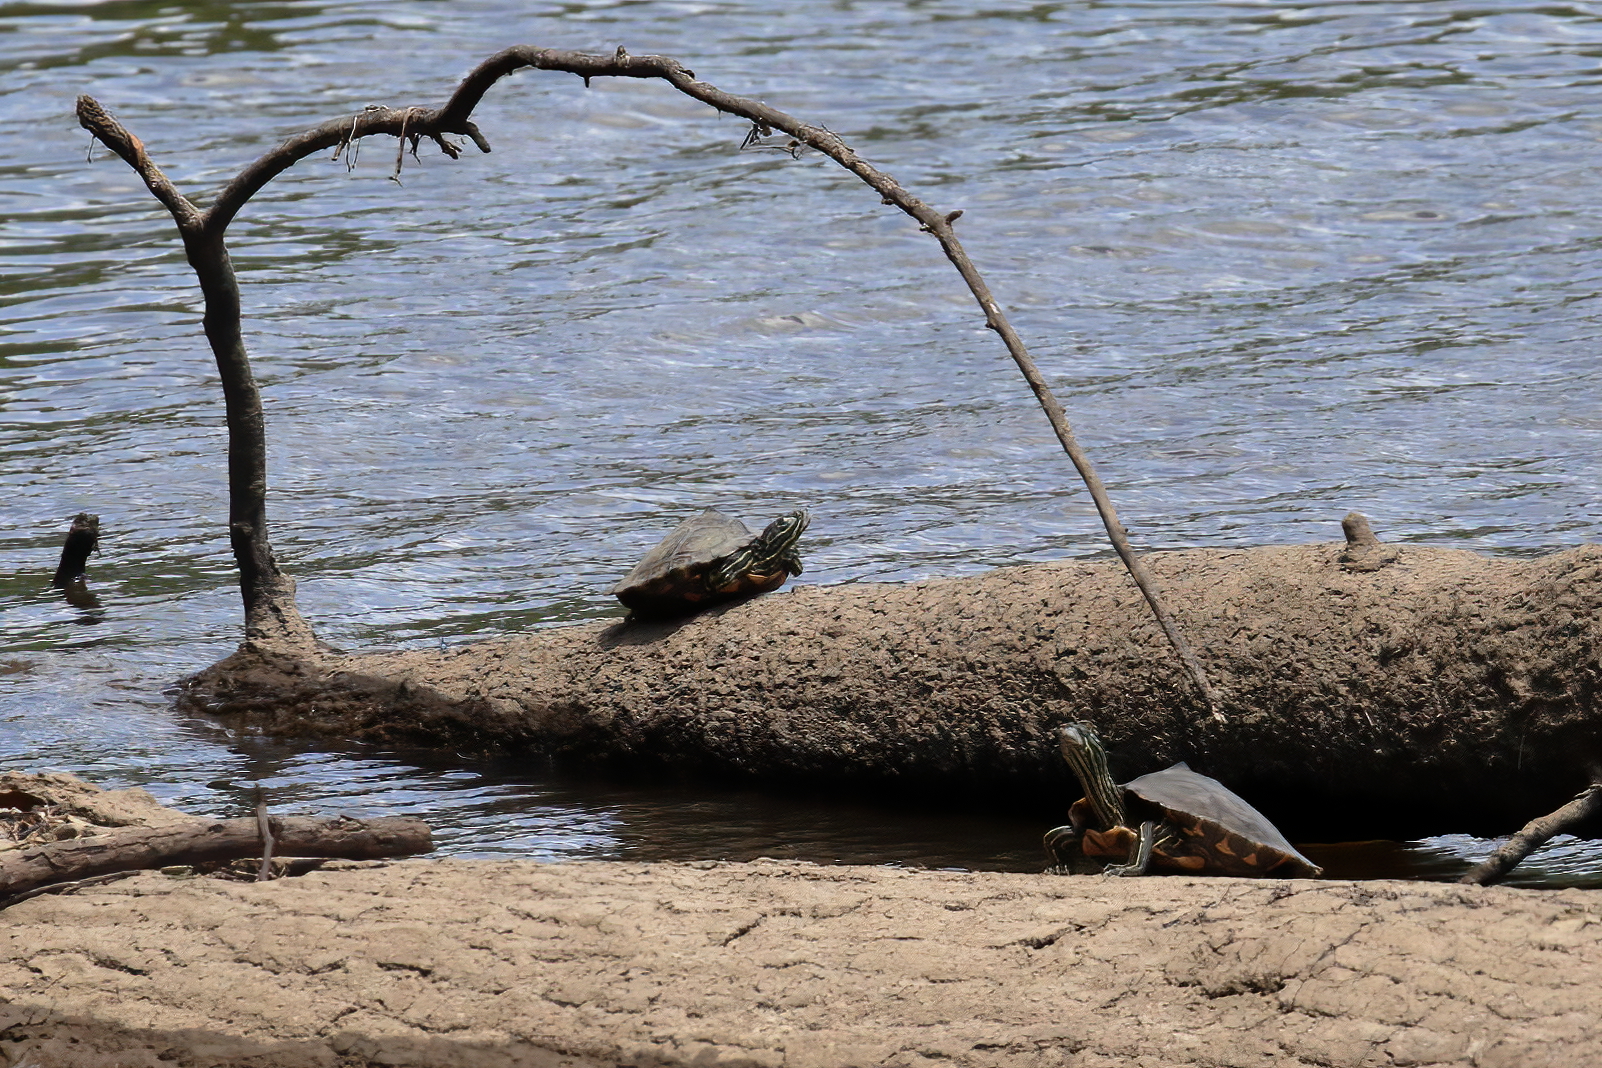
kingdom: Animalia
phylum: Chordata
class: Testudines
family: Emydidae
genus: Graptemys
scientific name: Graptemys oculifera
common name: Ringed map turtle
